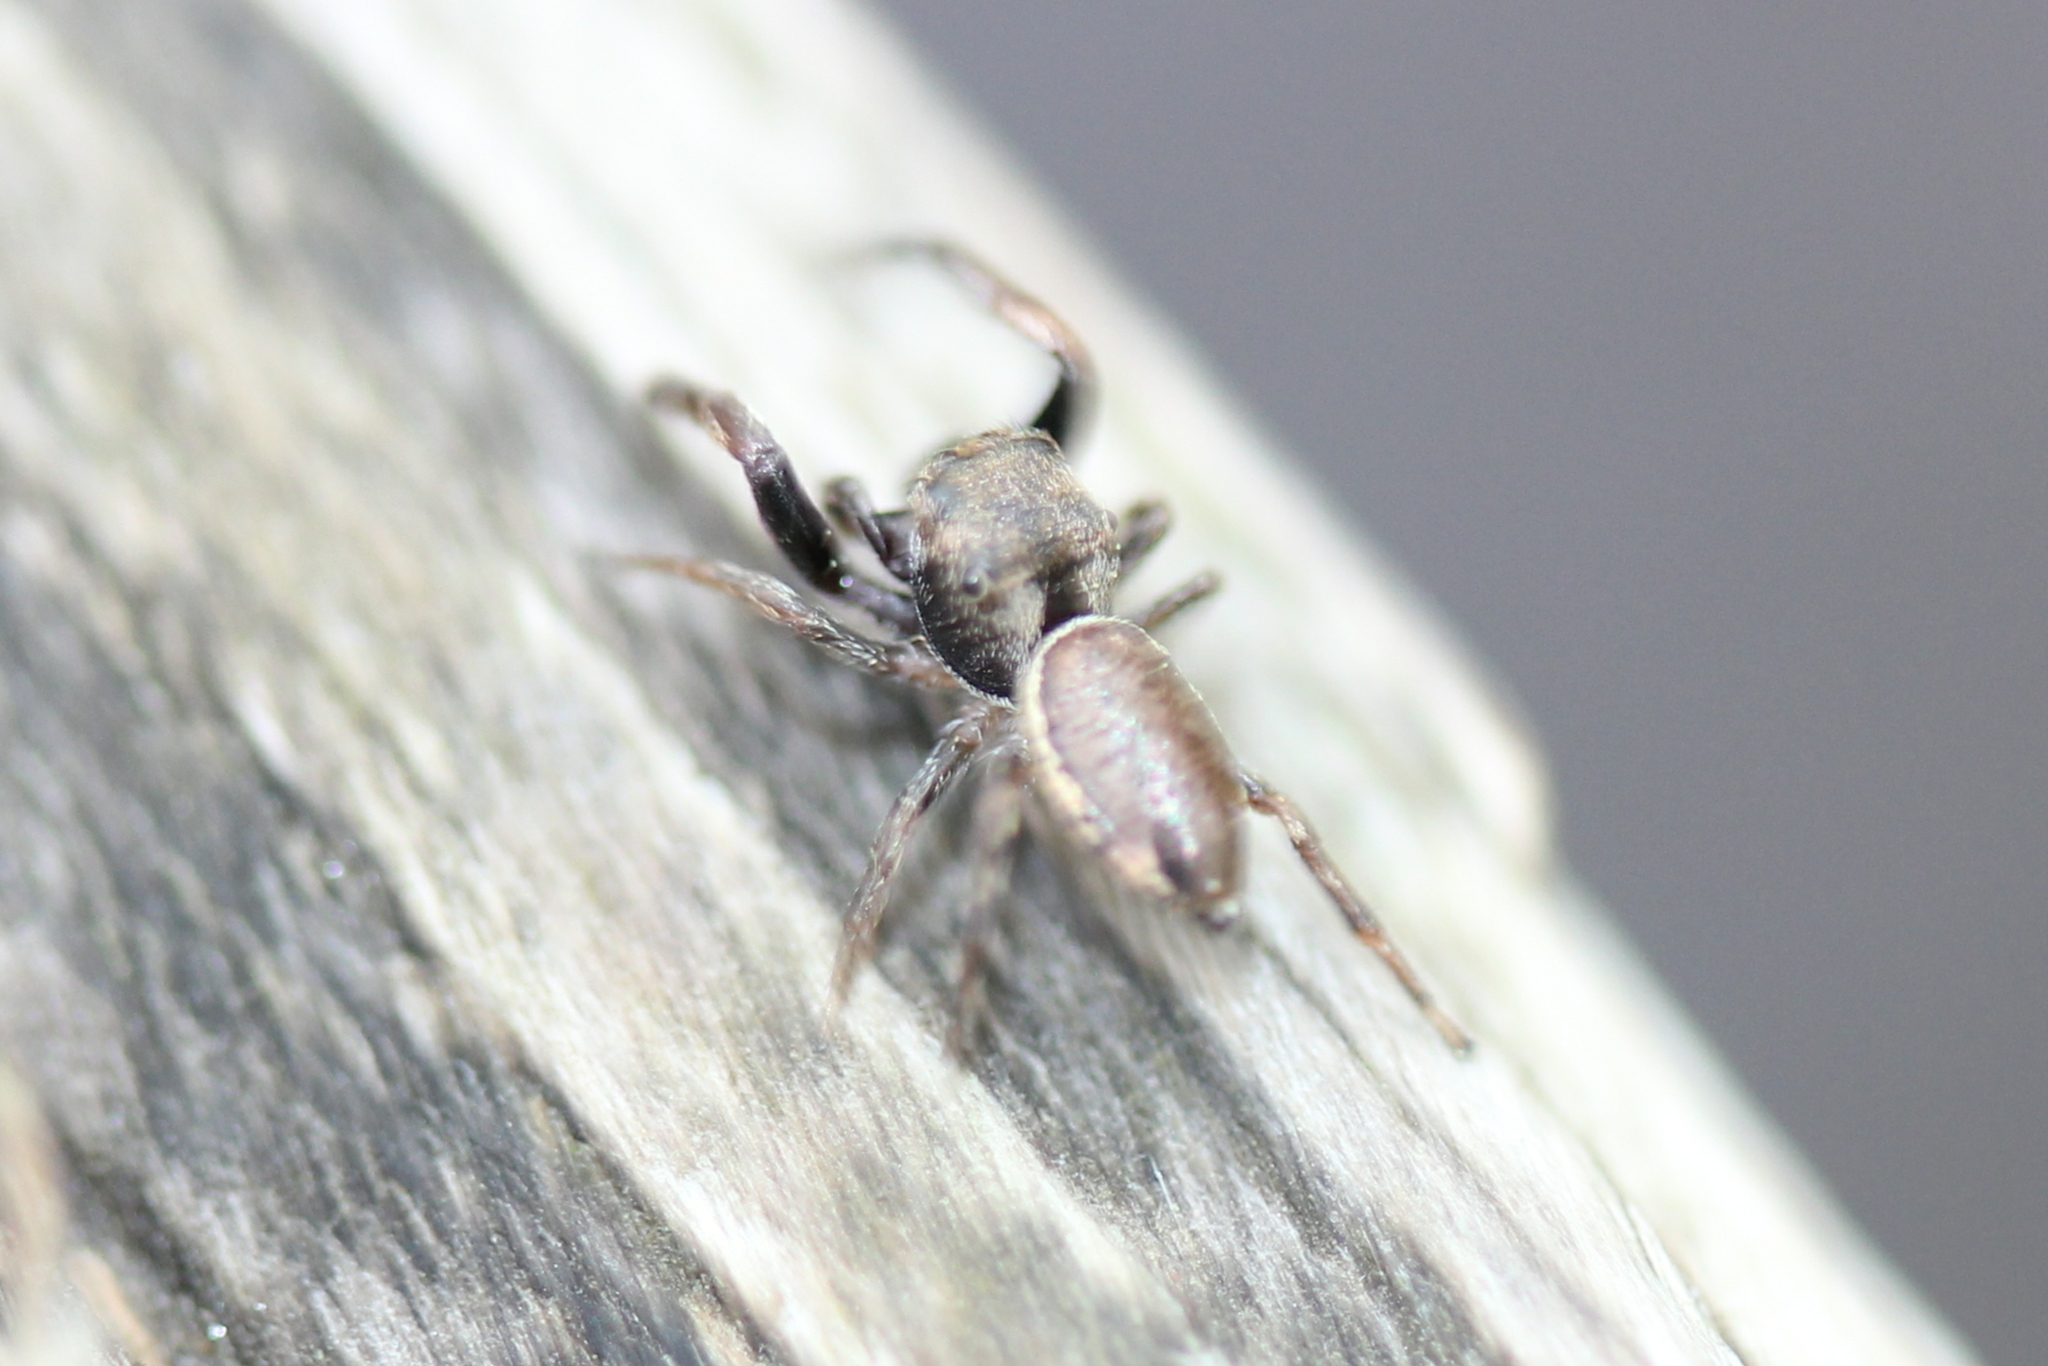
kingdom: Animalia
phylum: Arthropoda
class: Arachnida
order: Araneae
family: Salticidae
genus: Zygoballus
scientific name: Zygoballus nervosus
